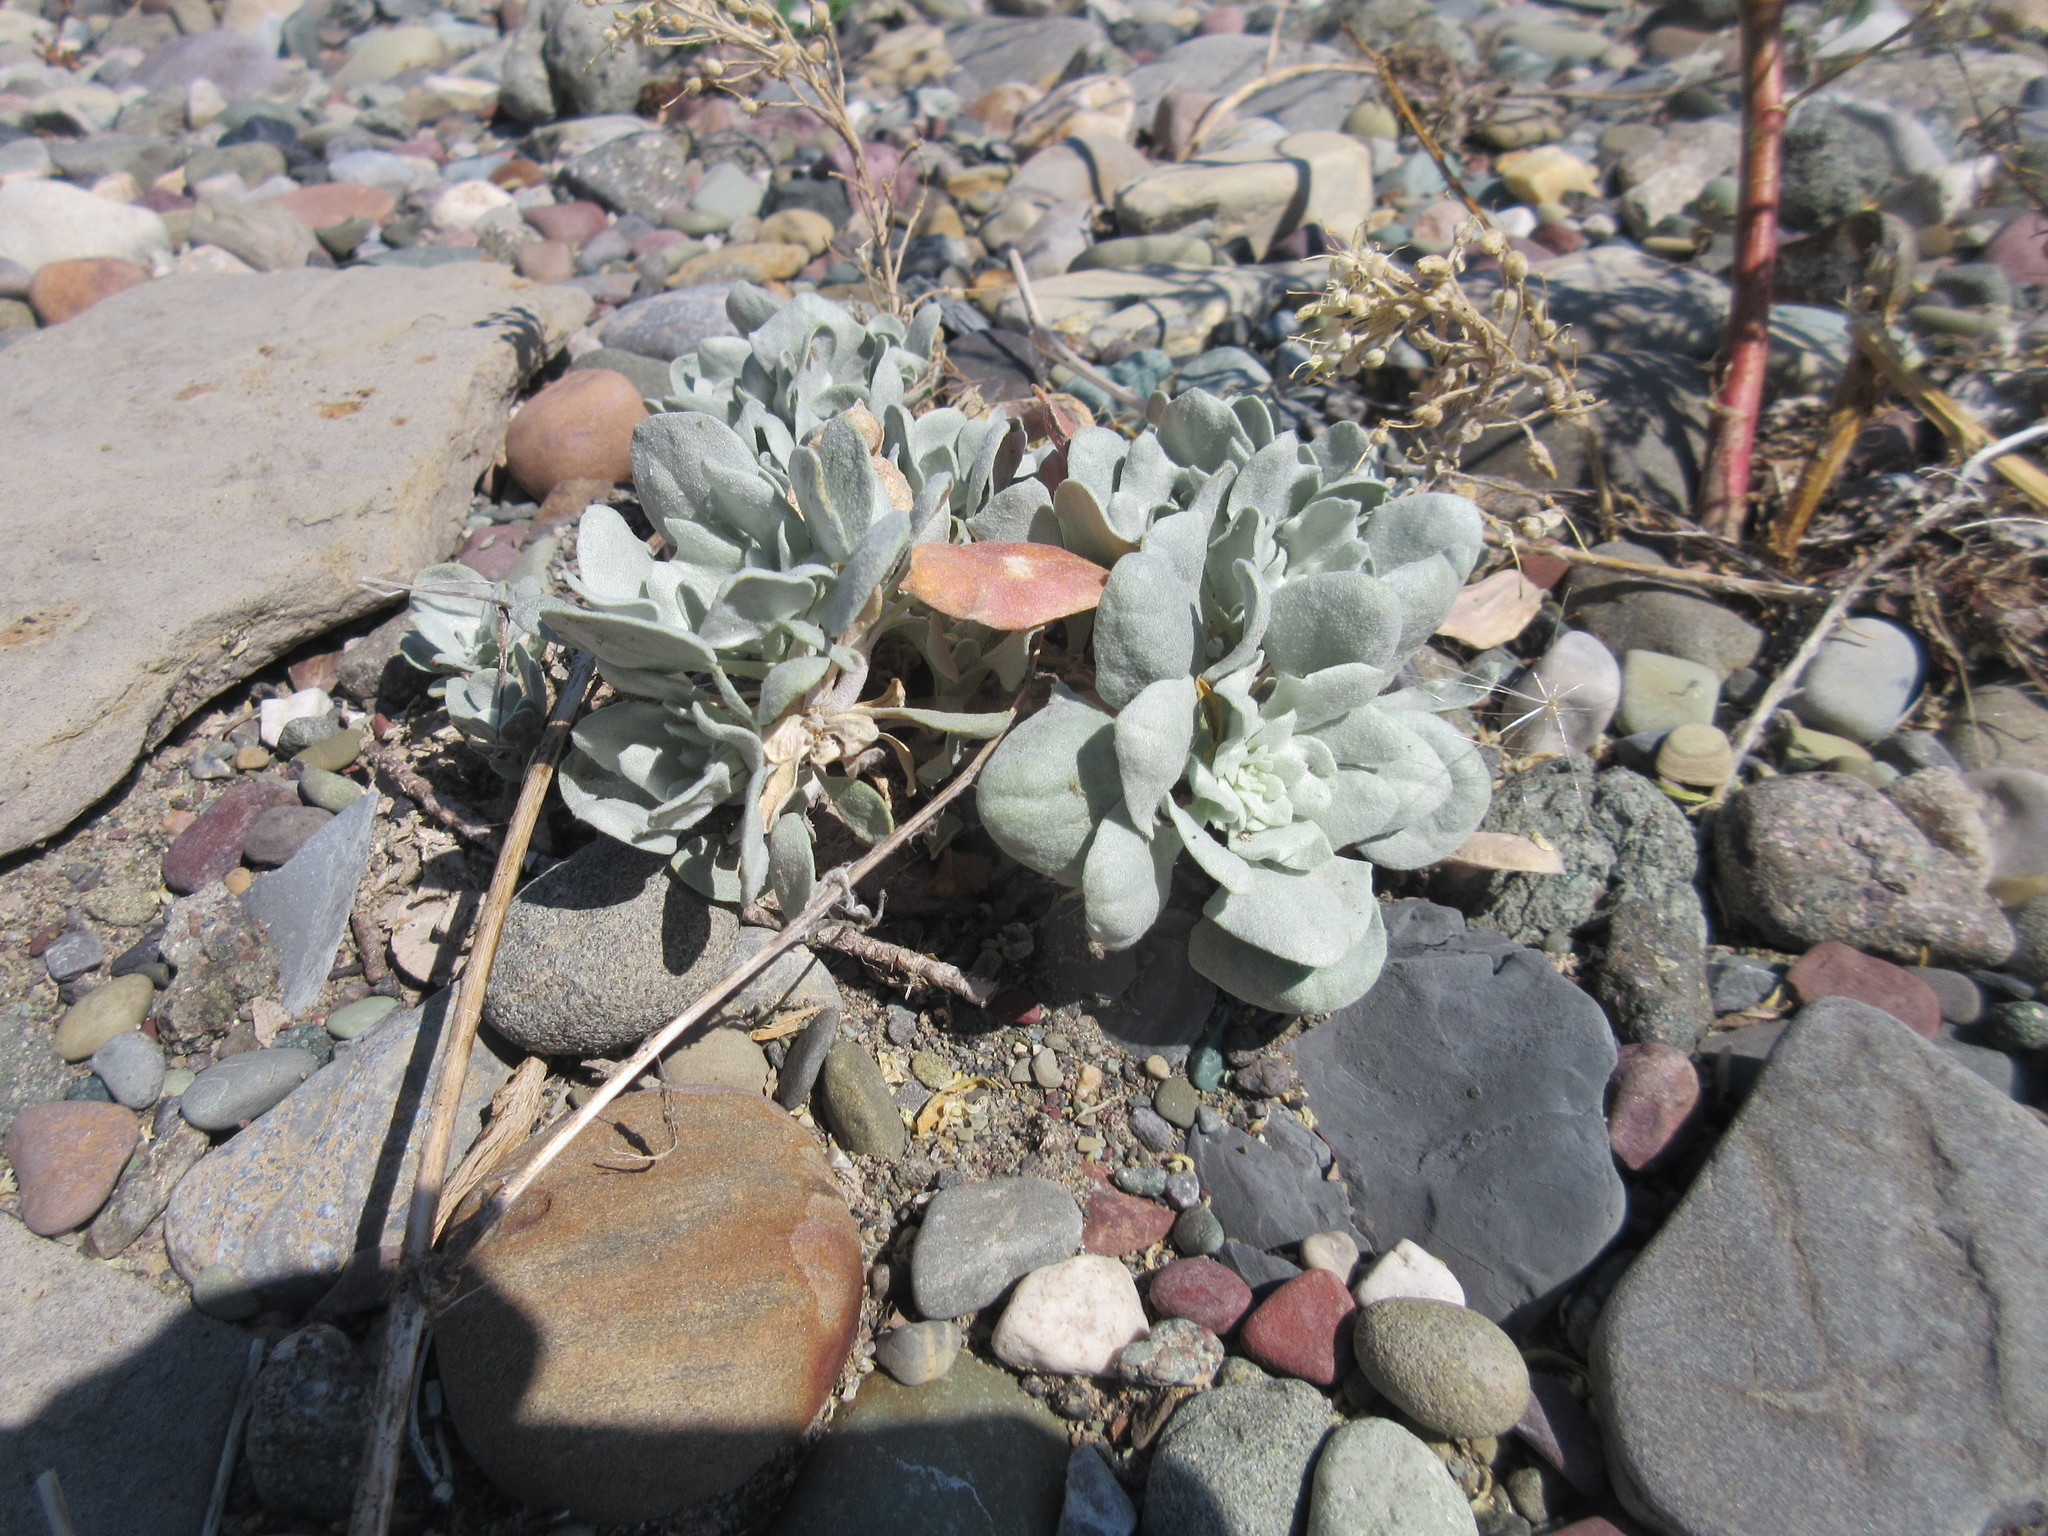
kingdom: Plantae
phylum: Tracheophyta
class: Magnoliopsida
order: Brassicales
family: Brassicaceae
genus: Physaria
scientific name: Physaria arctica
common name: Arctic bladderpod
